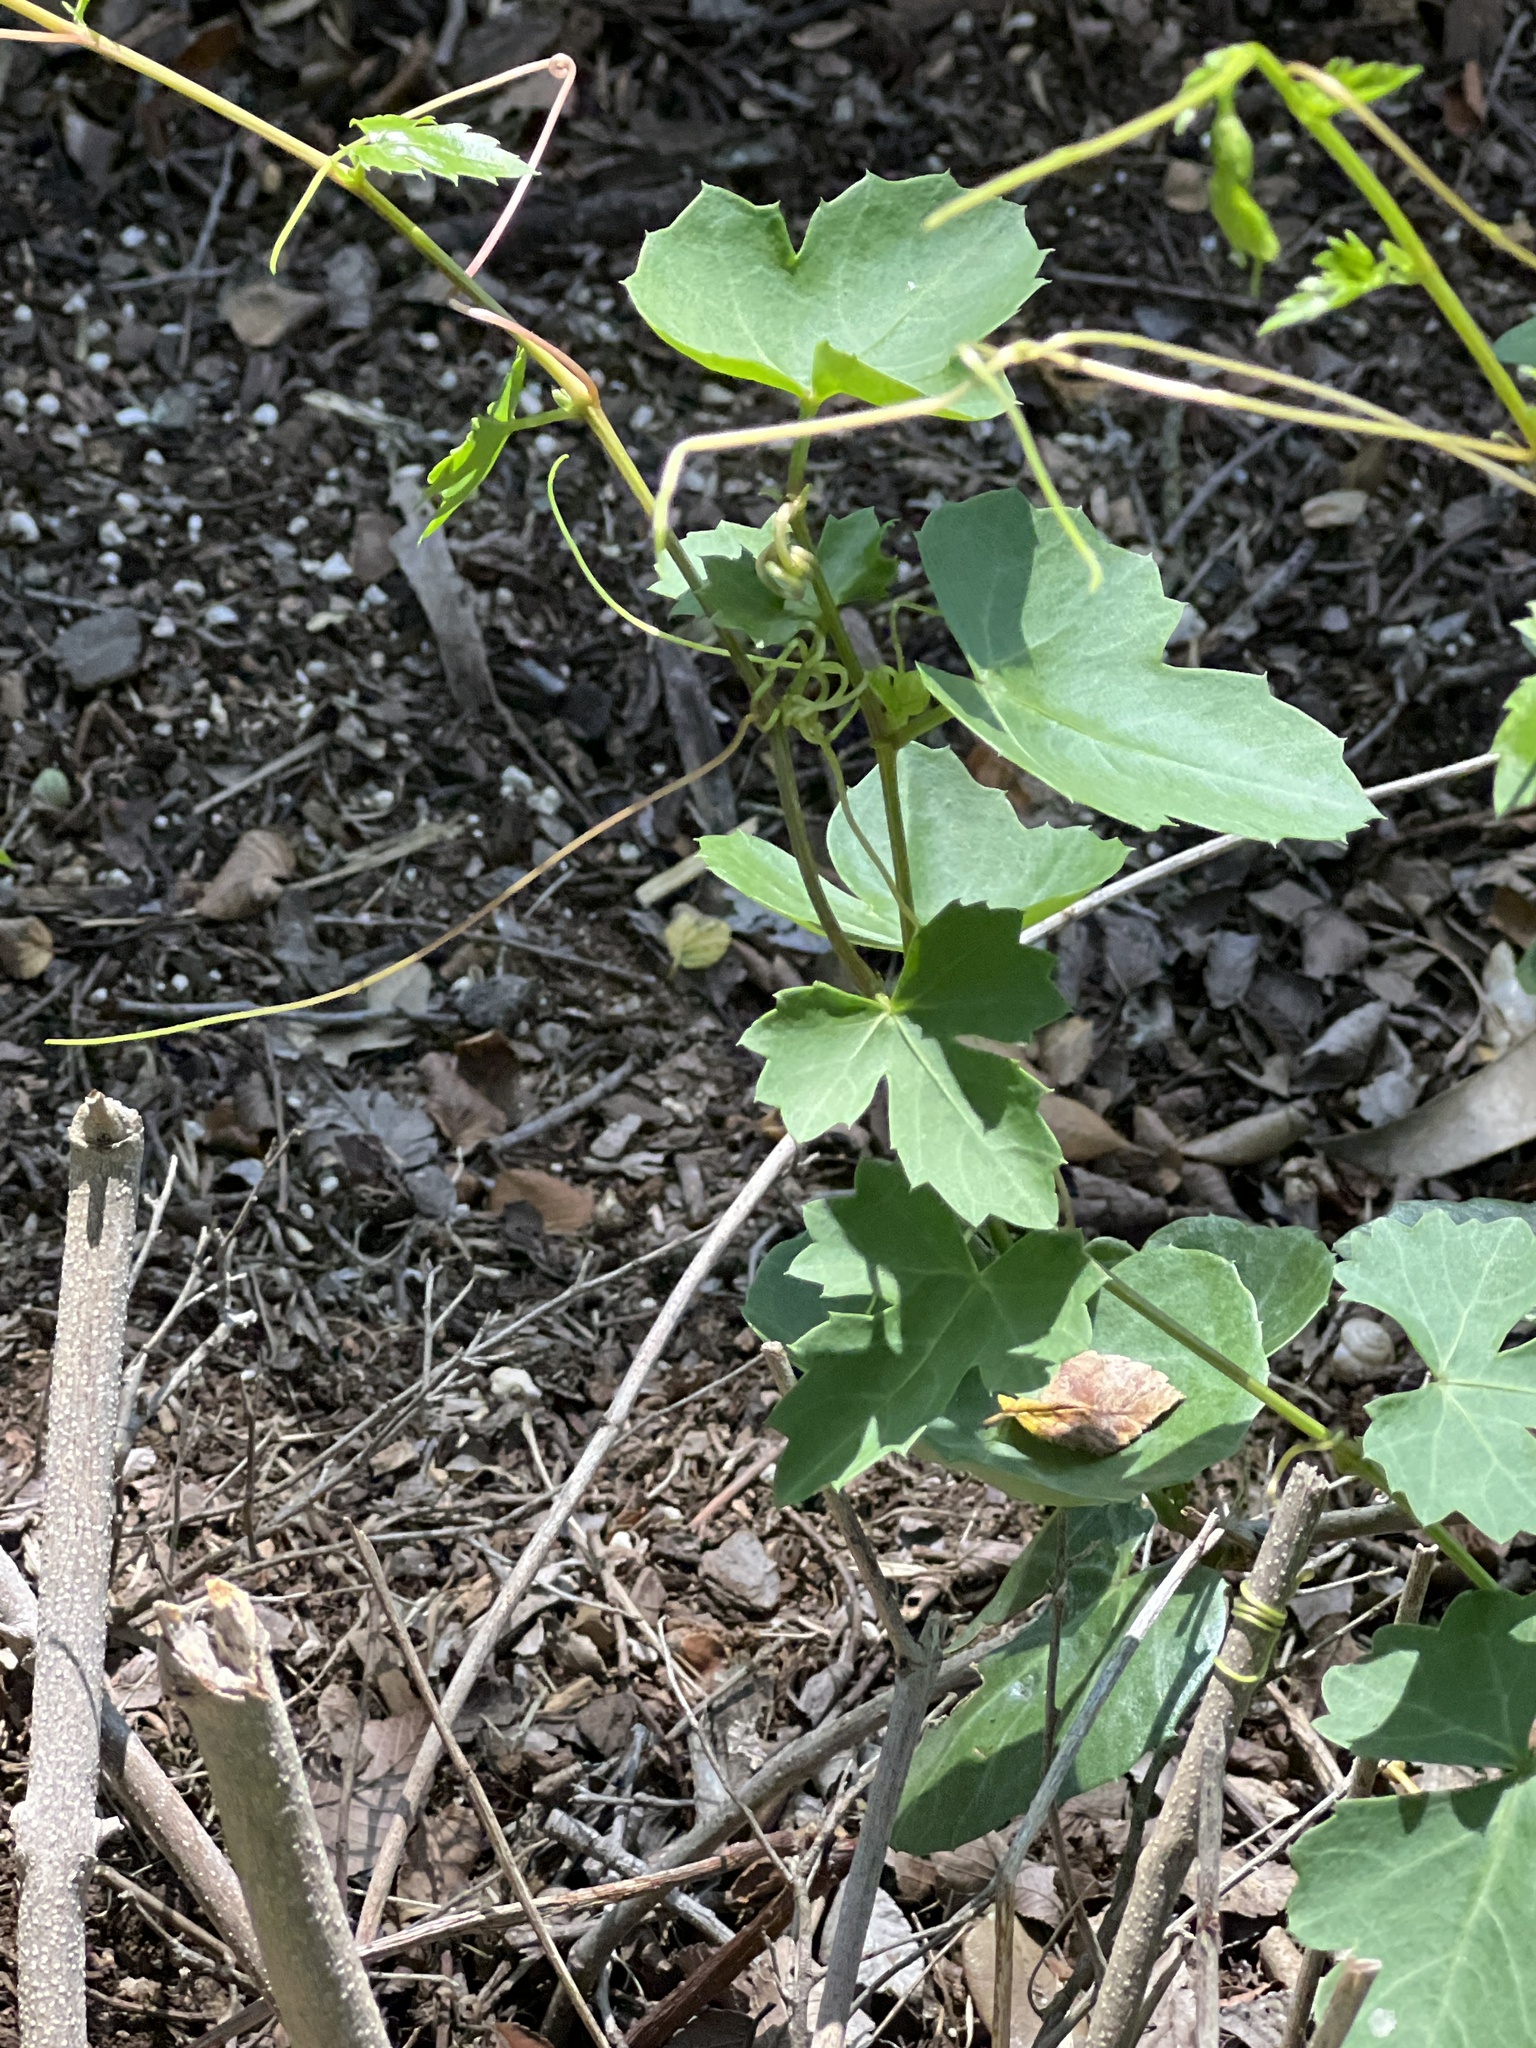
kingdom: Plantae
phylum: Tracheophyta
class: Magnoliopsida
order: Vitales
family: Vitaceae
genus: Cissus
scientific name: Cissus trifoliata
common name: Vine-sorrel
